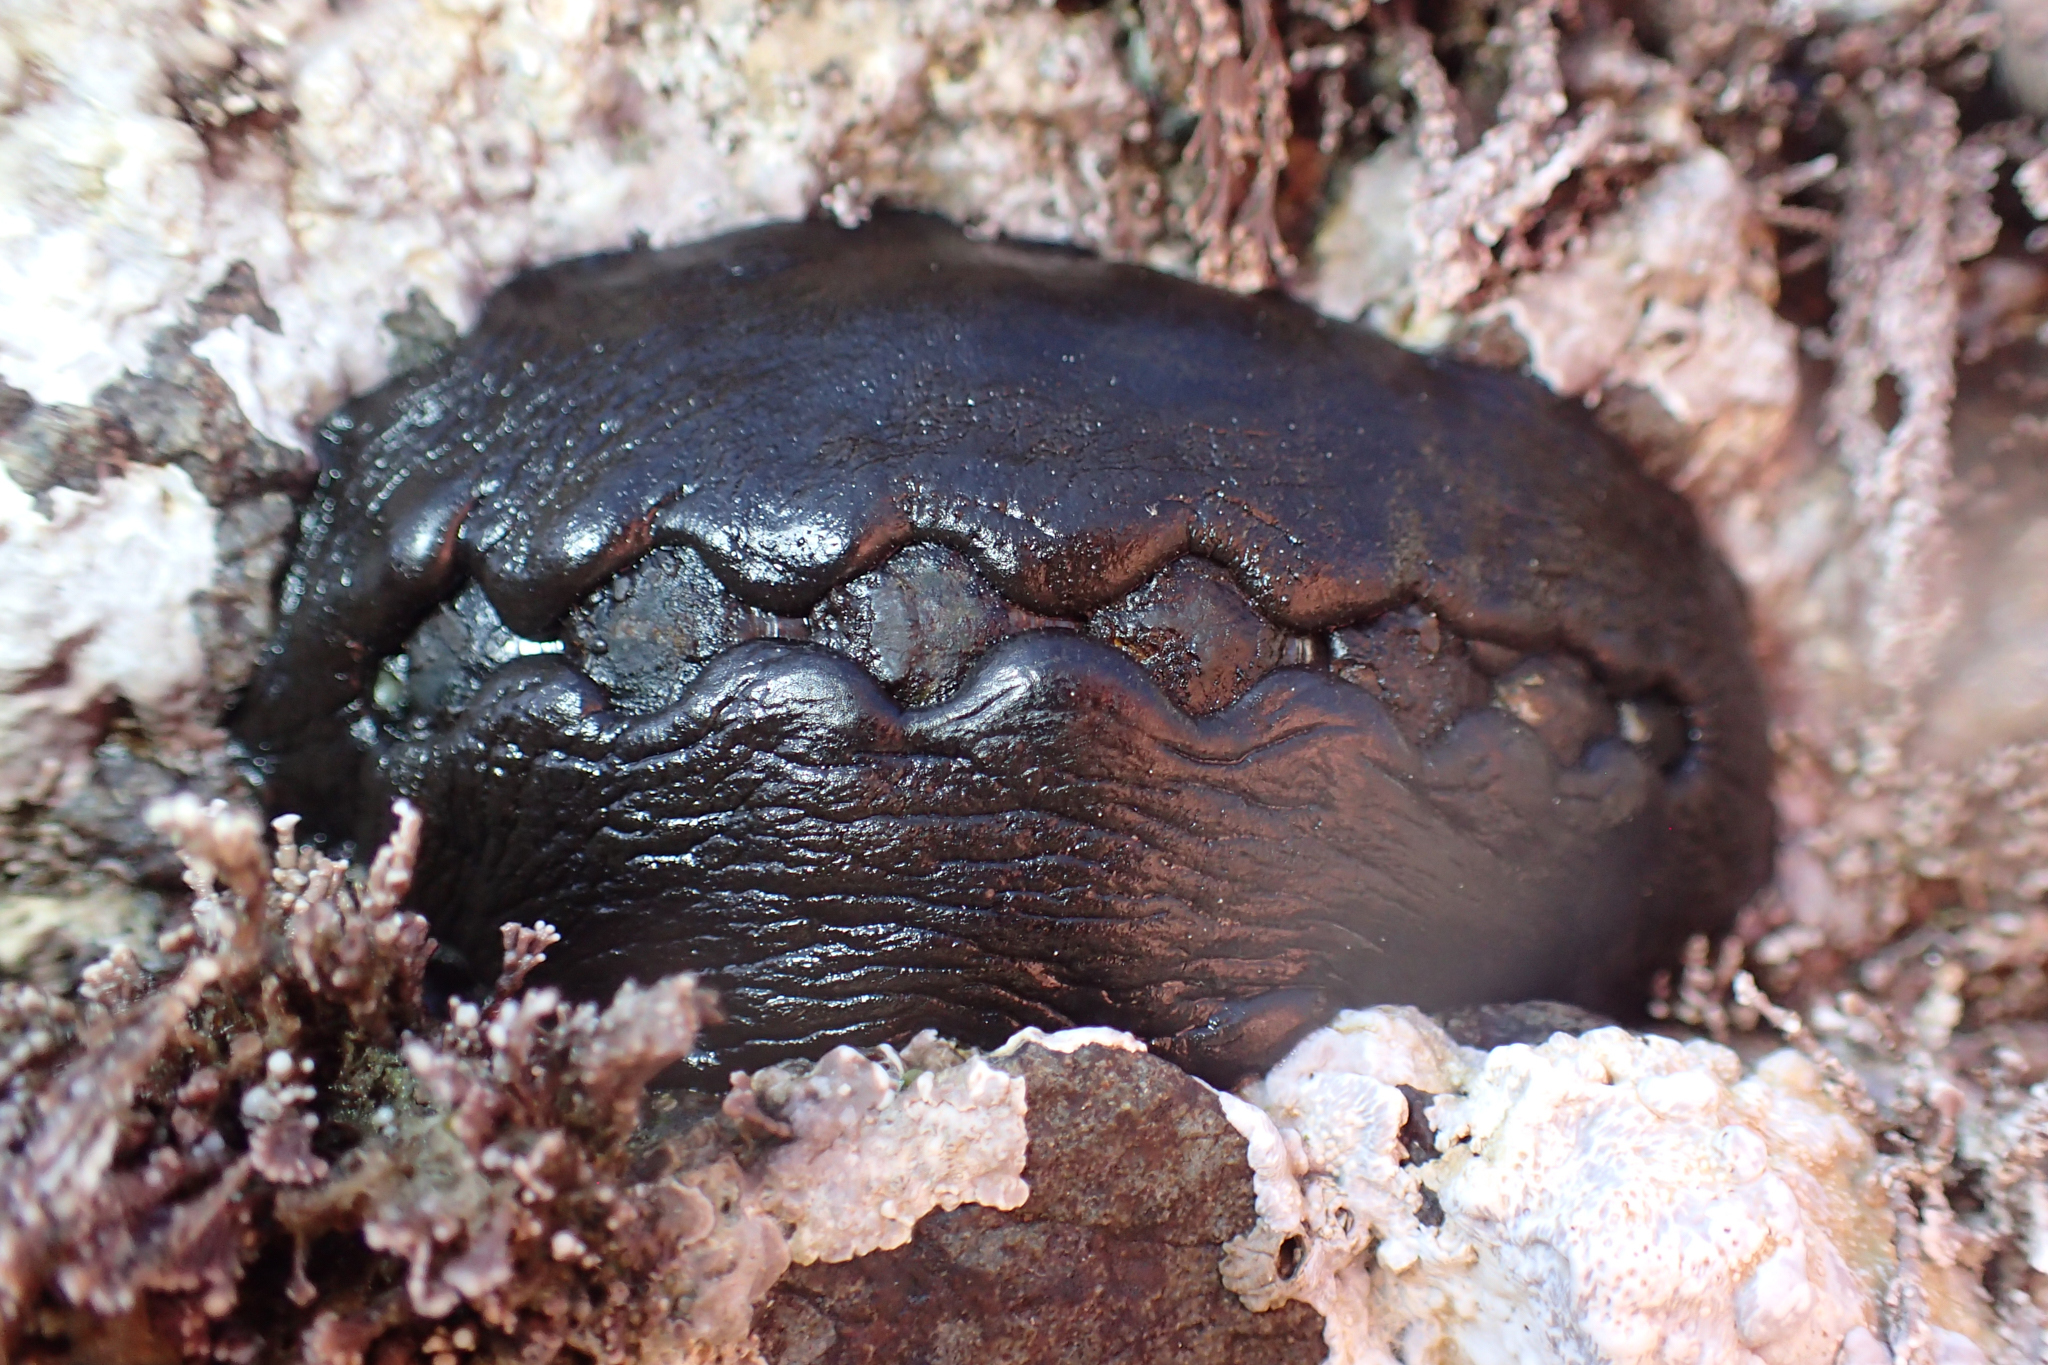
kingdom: Animalia
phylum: Mollusca
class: Polyplacophora
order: Chitonida
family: Mopaliidae
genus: Katharina
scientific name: Katharina tunicata
